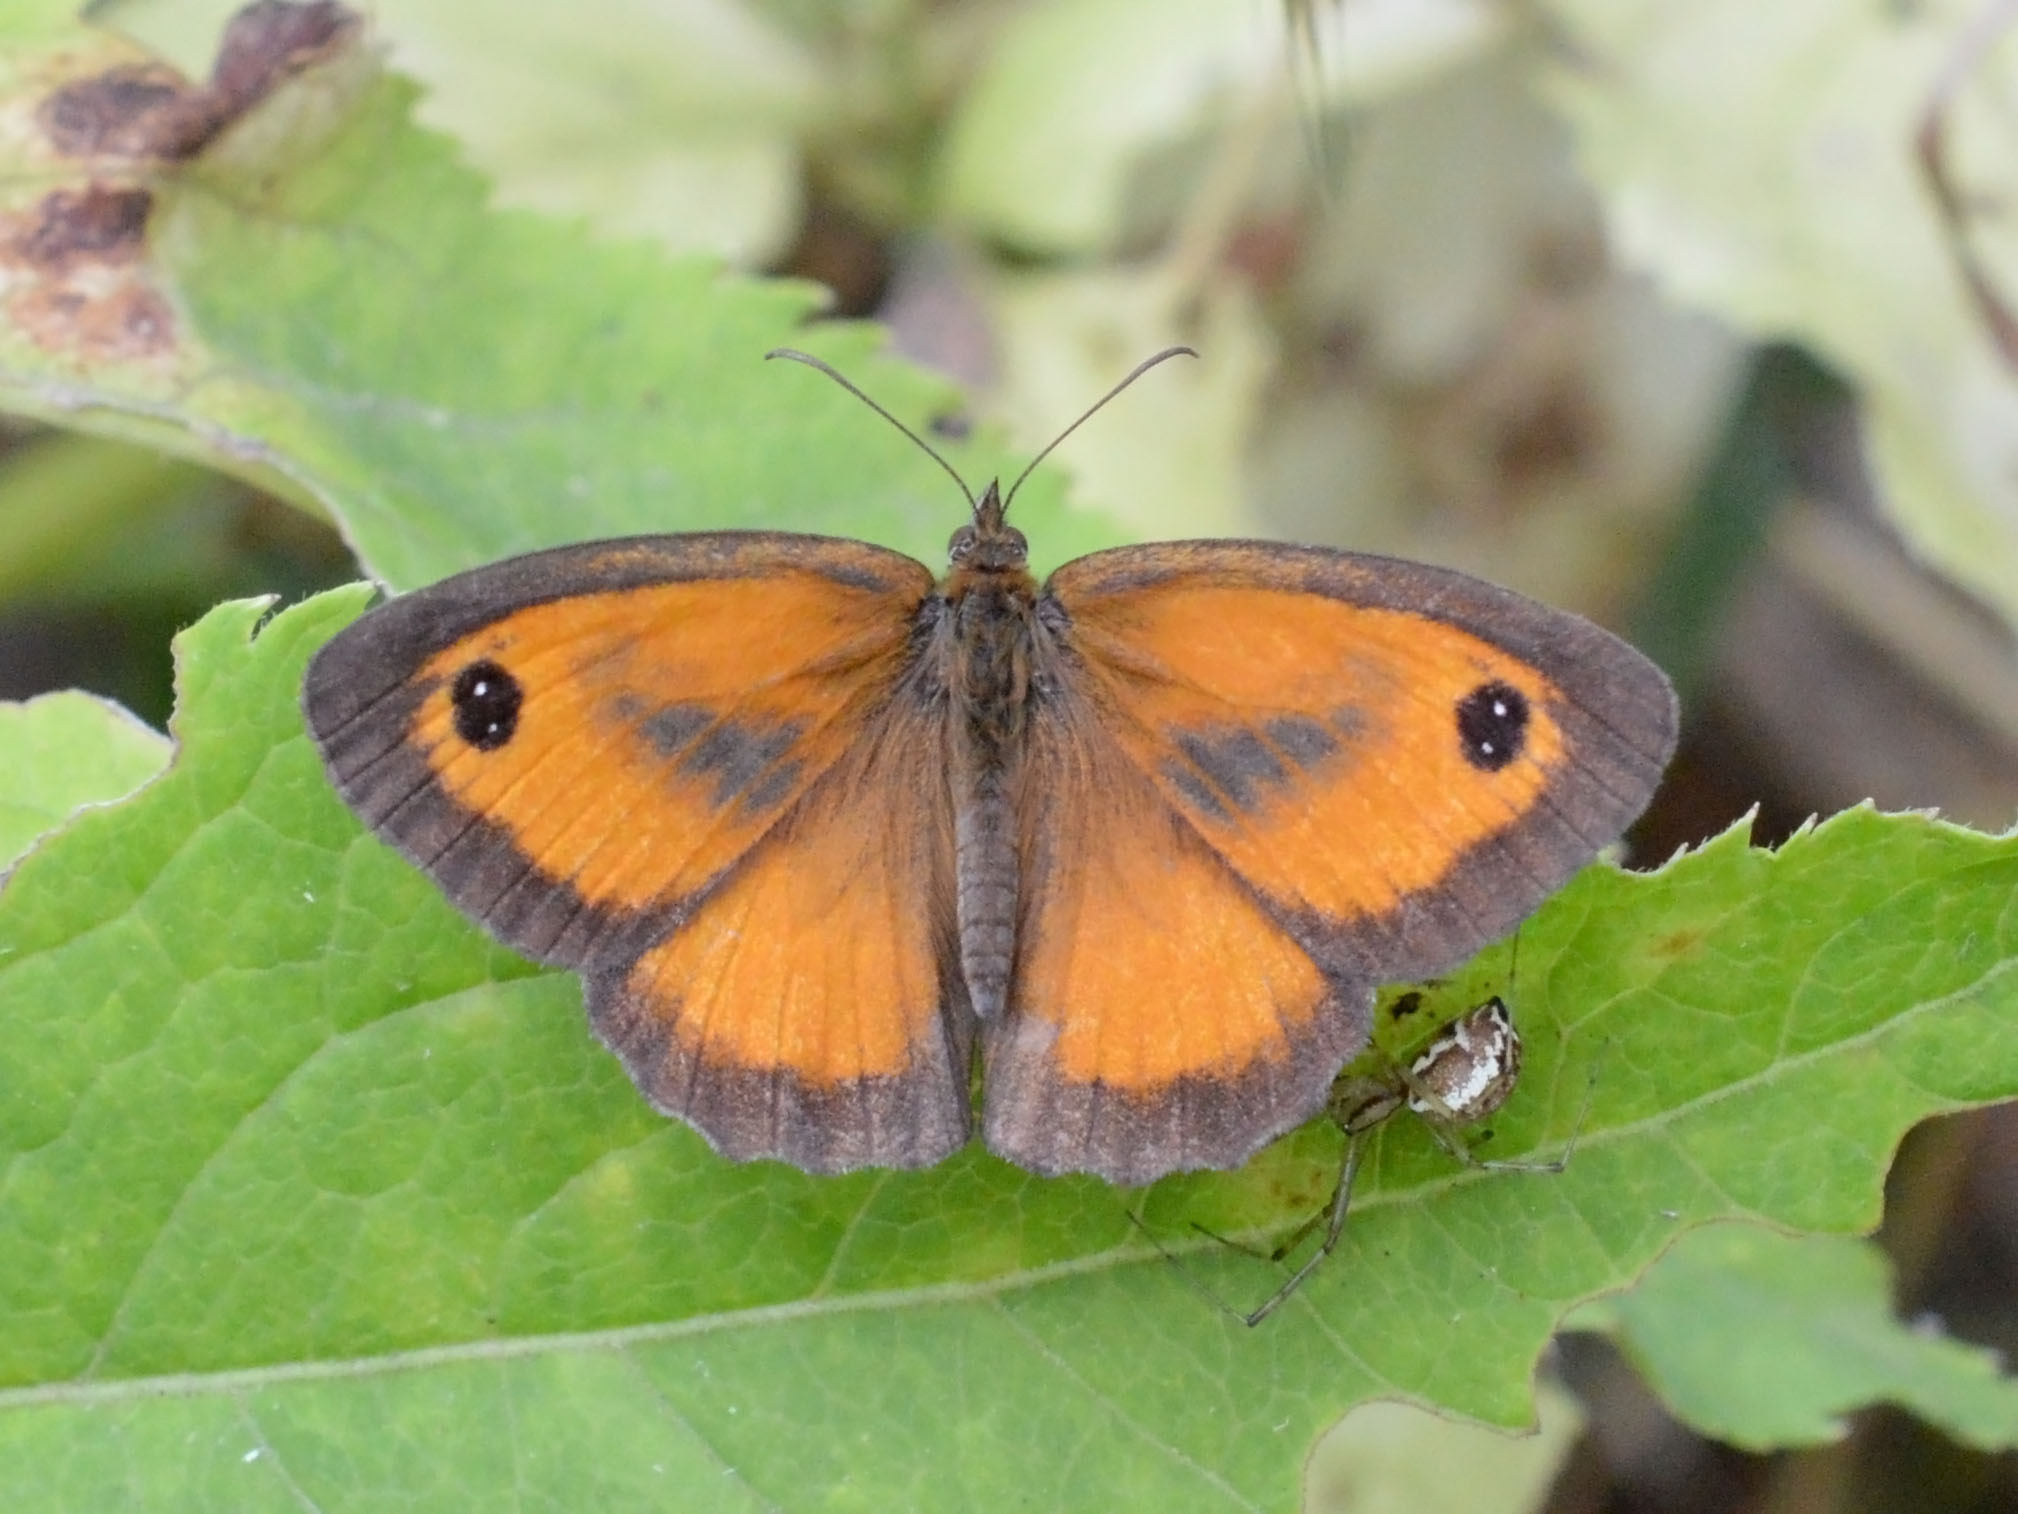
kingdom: Animalia
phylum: Arthropoda
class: Insecta
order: Lepidoptera
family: Nymphalidae
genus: Pyronia
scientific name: Pyronia tithonus
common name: Gatekeeper
